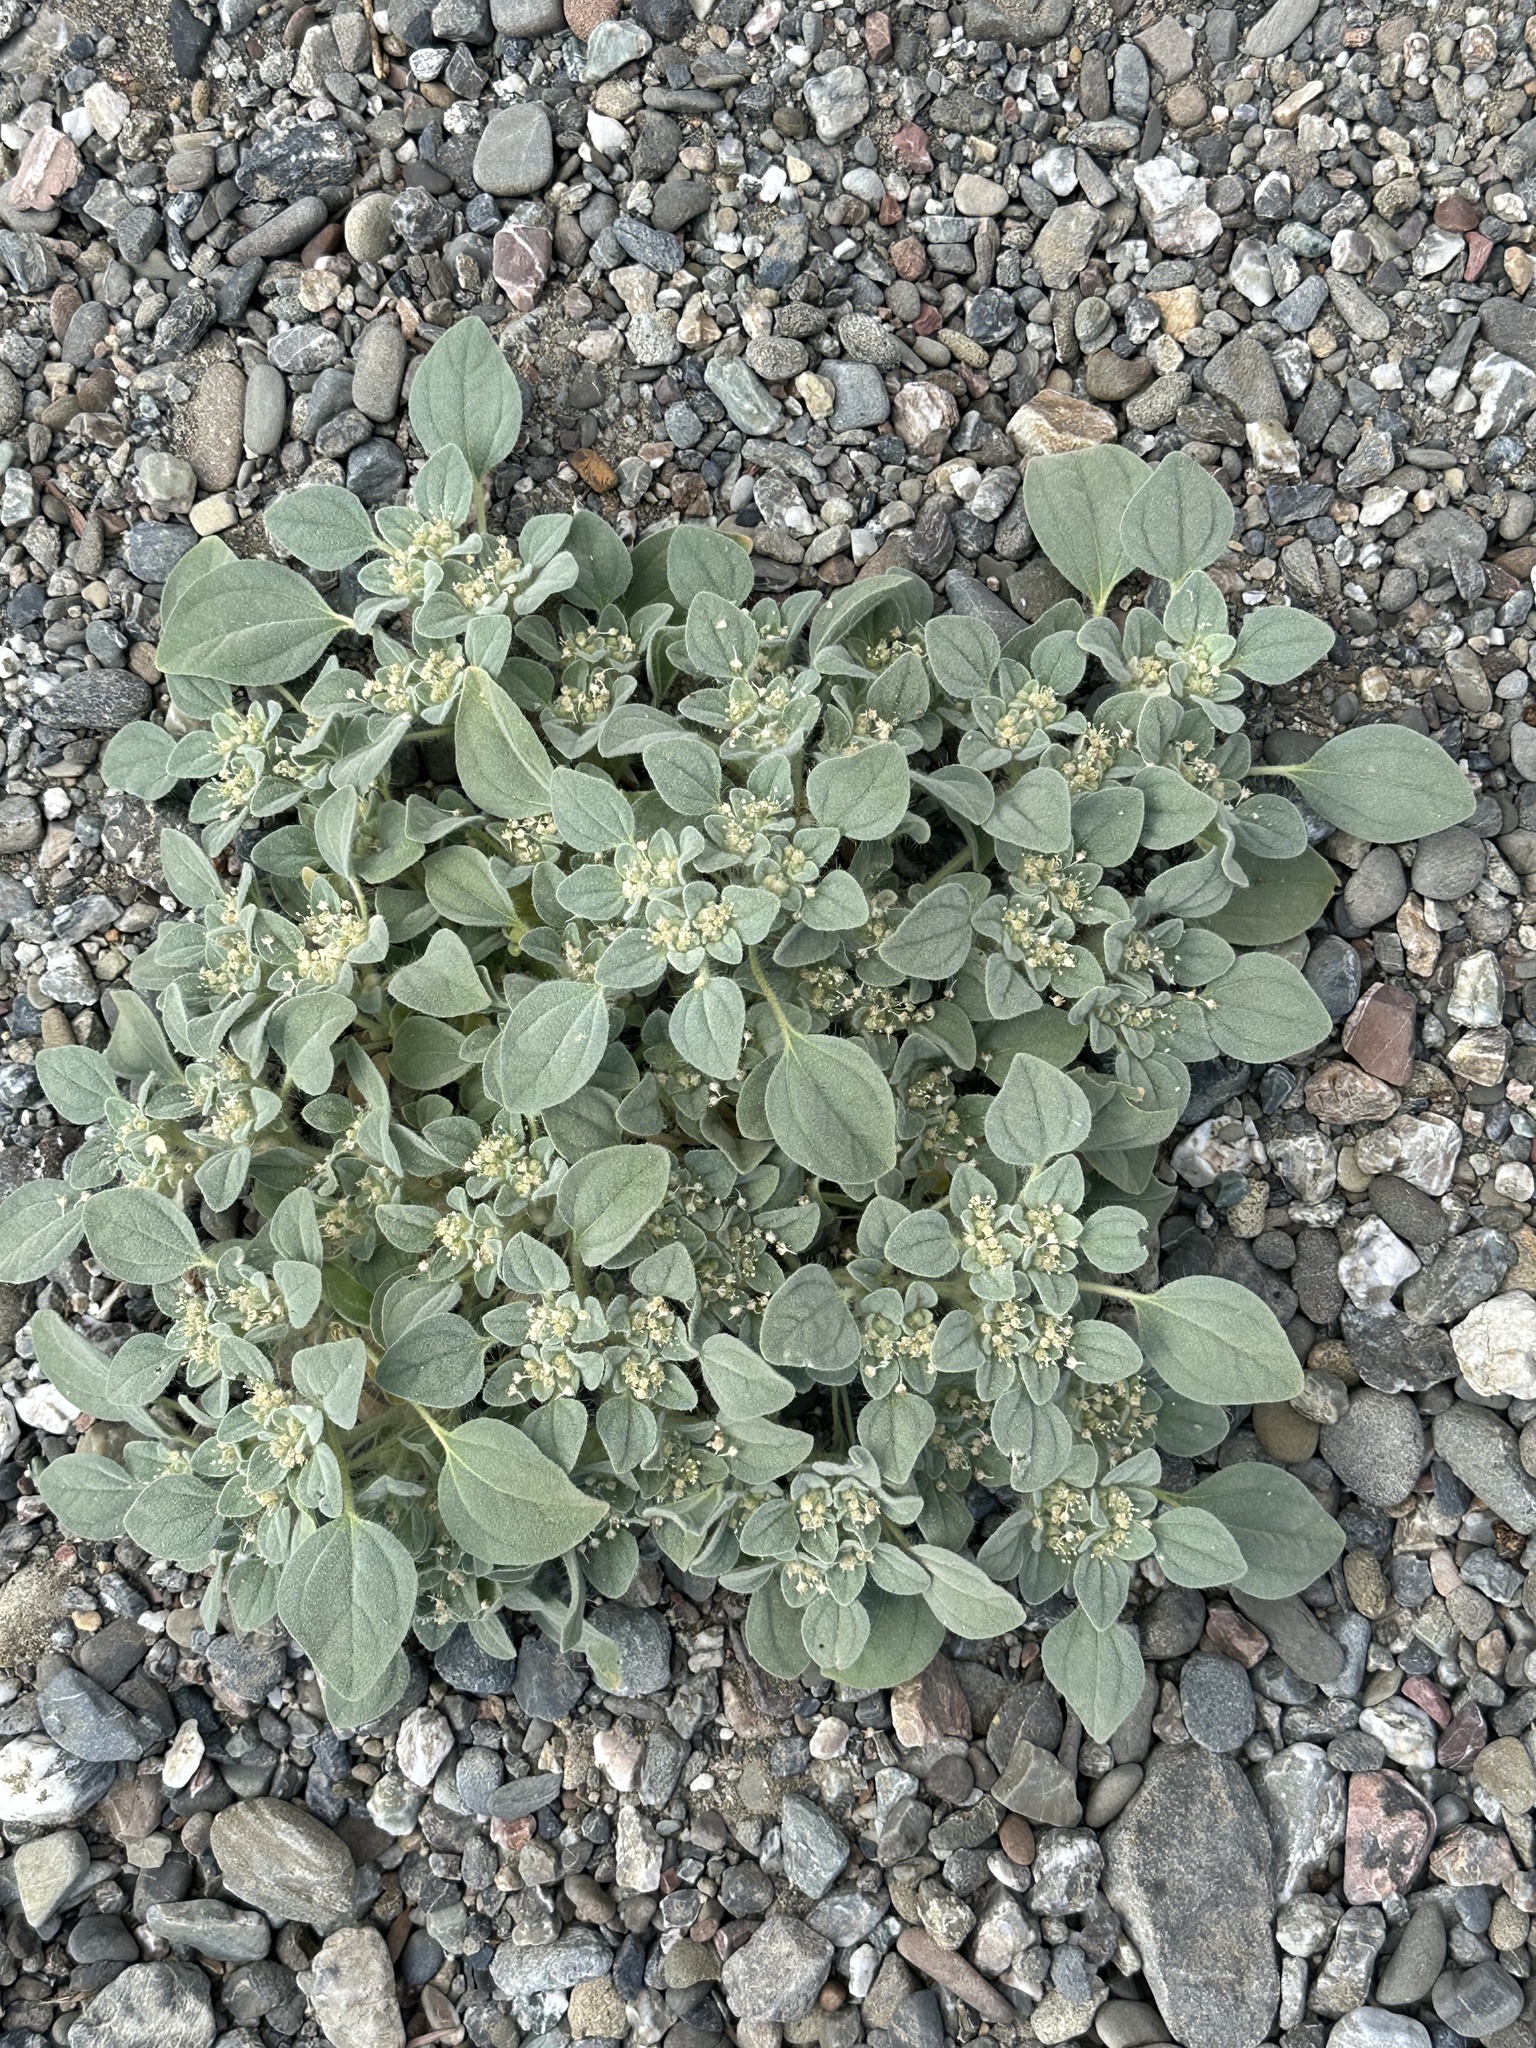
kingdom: Plantae
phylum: Tracheophyta
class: Magnoliopsida
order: Malpighiales
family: Euphorbiaceae
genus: Croton
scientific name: Croton setiger
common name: Dove weed
